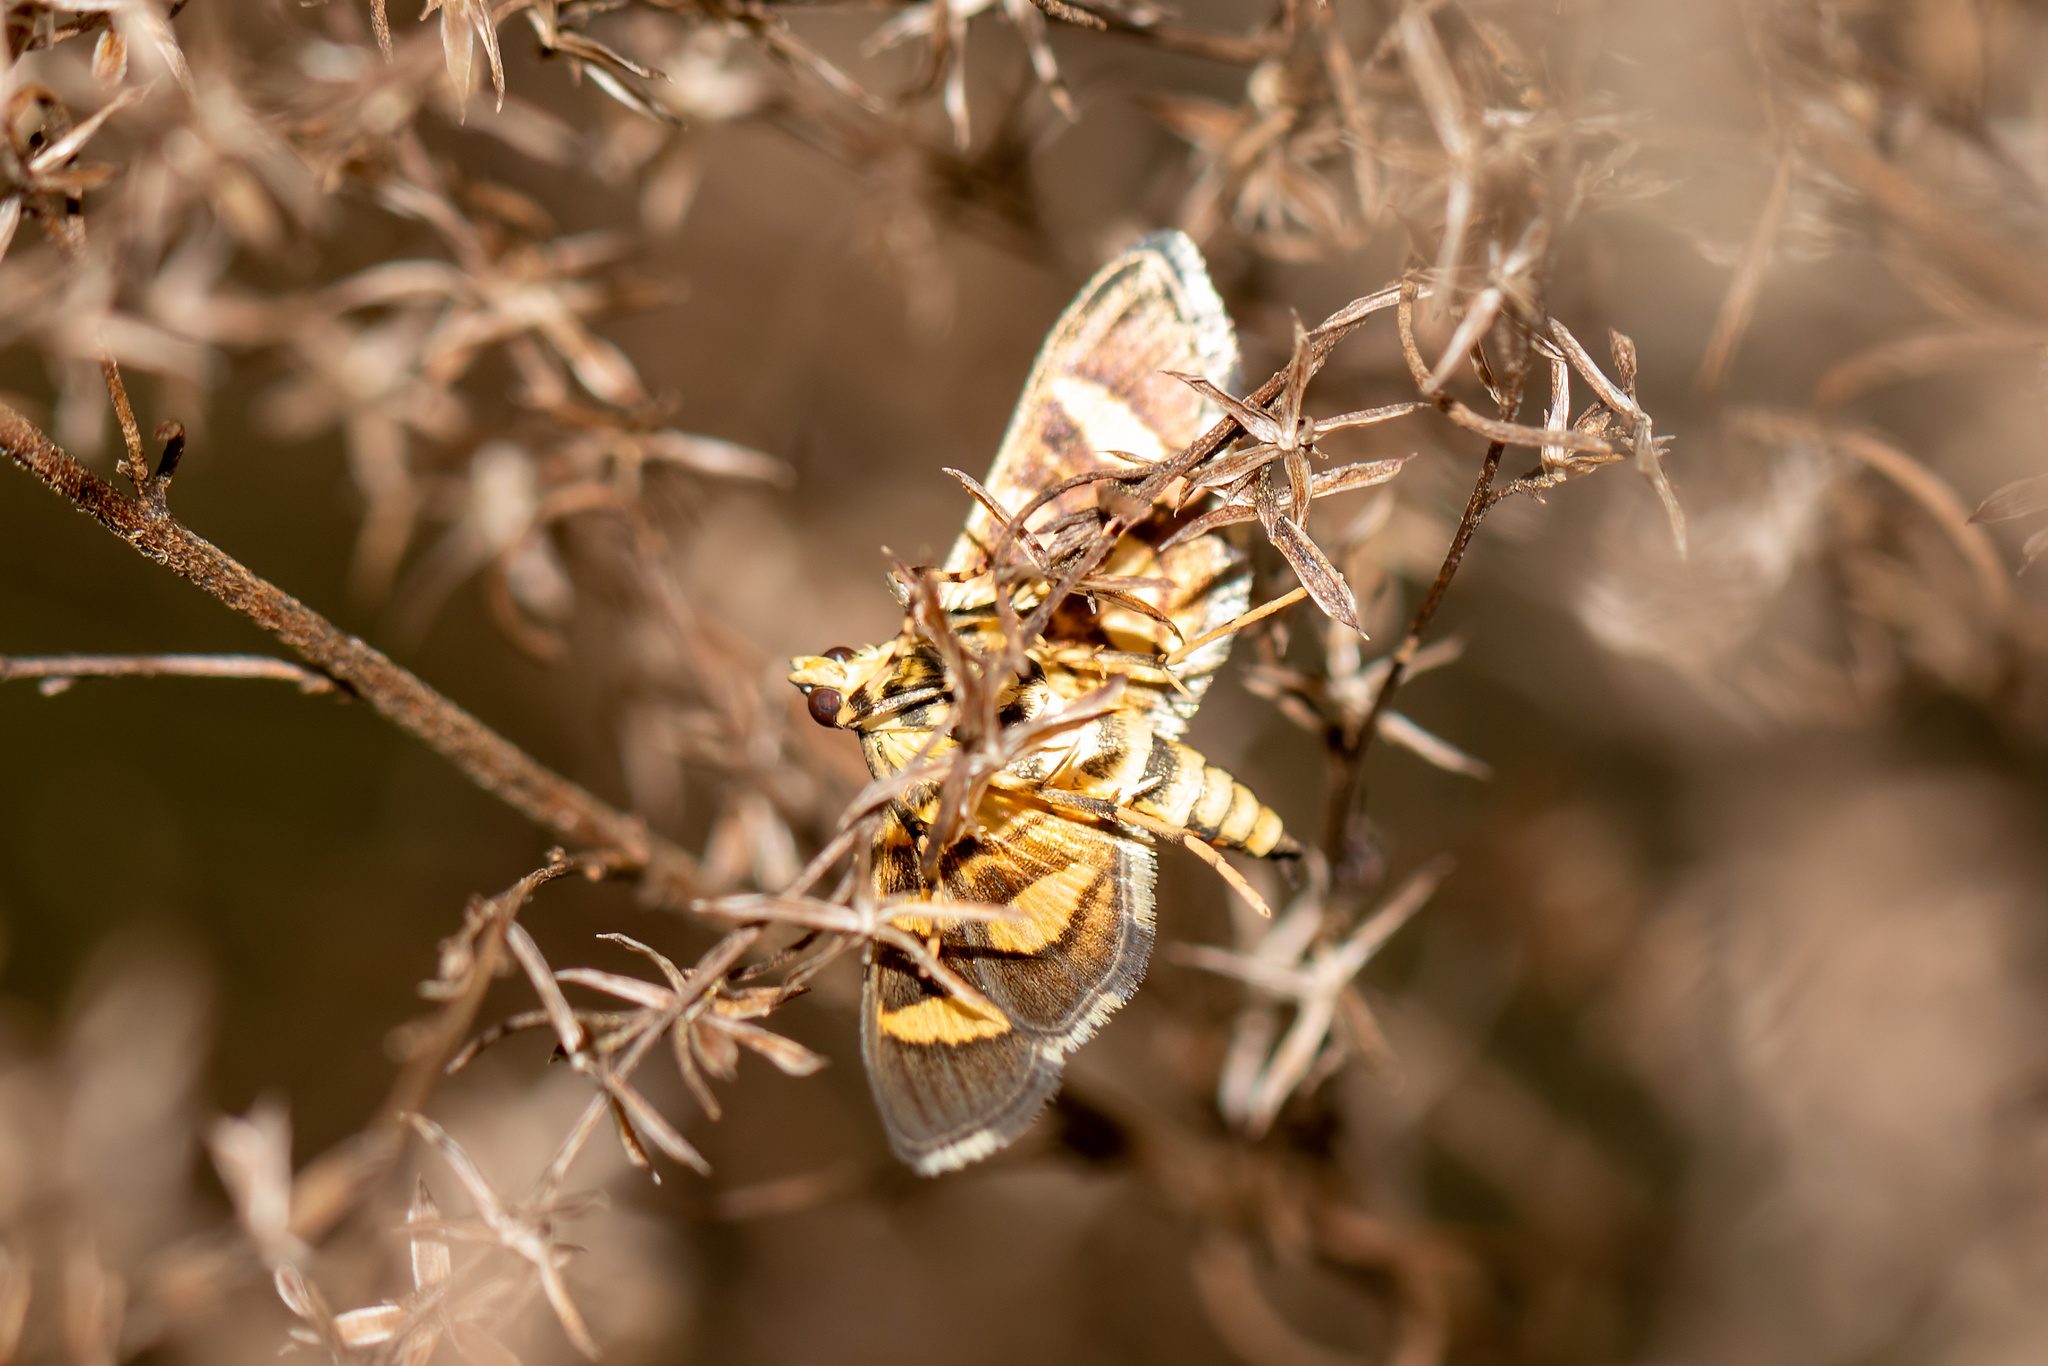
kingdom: Animalia
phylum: Arthropoda
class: Insecta
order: Lepidoptera
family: Crambidae
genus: Syngamia
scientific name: Syngamia florella
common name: Orange-spotted flower moth
